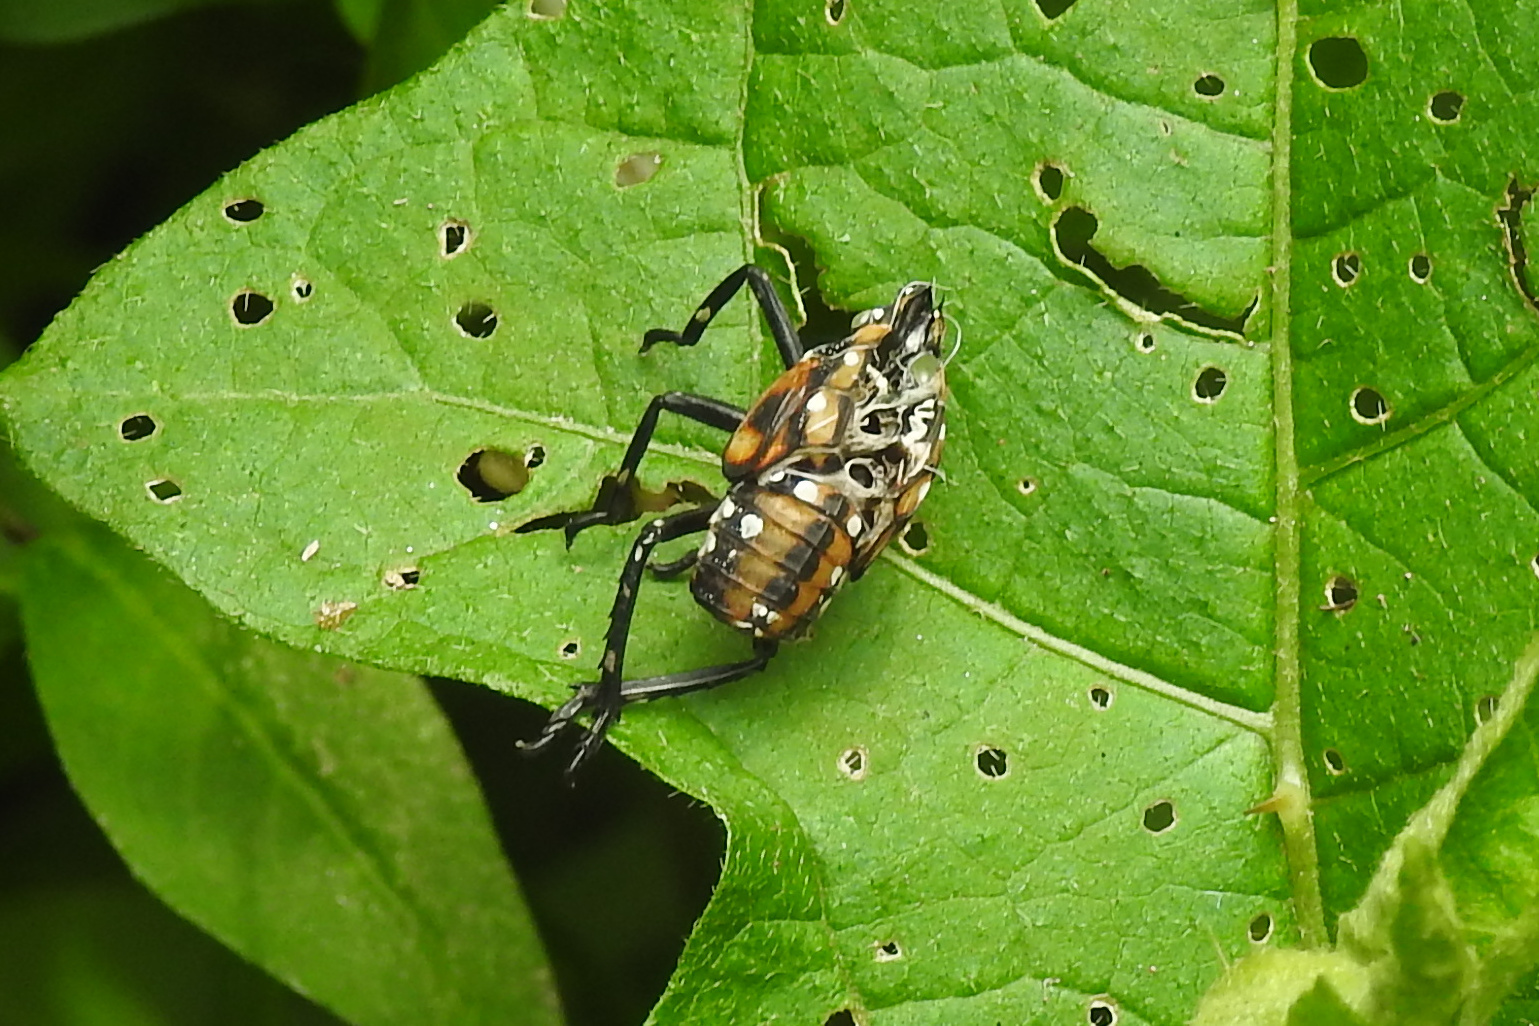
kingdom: Animalia
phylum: Arthropoda
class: Insecta
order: Hemiptera
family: Fulgoridae
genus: Lycorma
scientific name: Lycorma delicatula
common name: Spotted lanternfly
